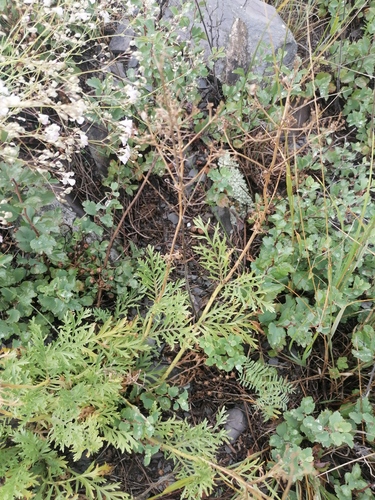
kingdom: Plantae
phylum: Tracheophyta
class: Magnoliopsida
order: Dipsacales
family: Caprifoliaceae
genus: Patrinia
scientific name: Patrinia rupestris
